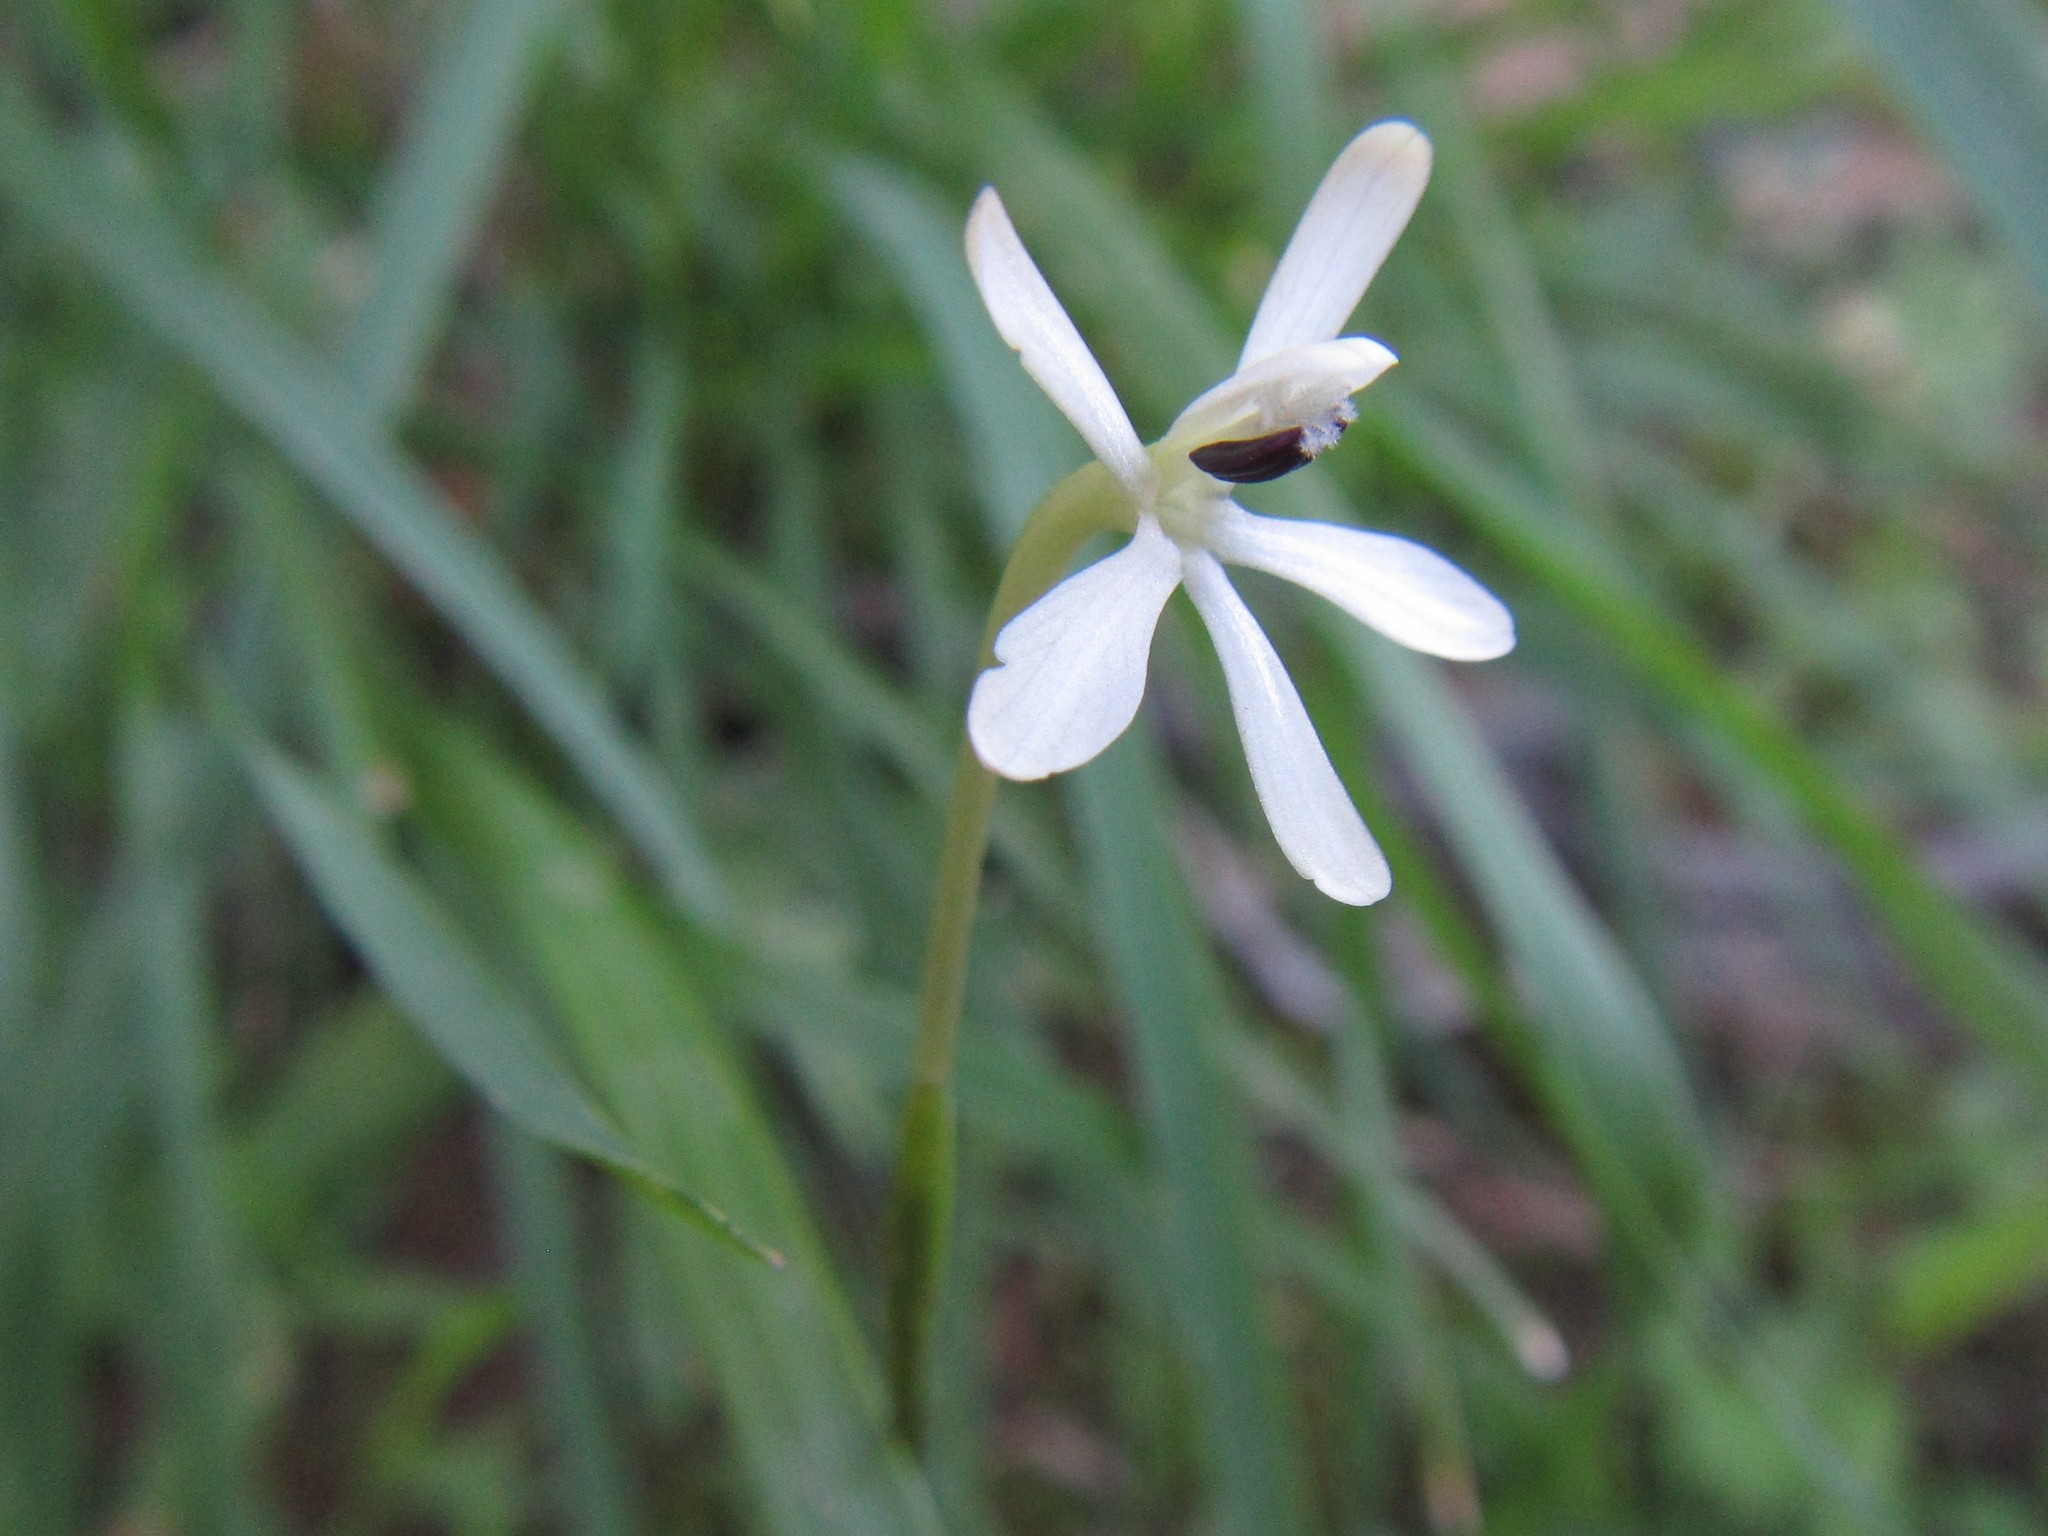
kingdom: Plantae
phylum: Tracheophyta
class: Liliopsida
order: Asparagales
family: Iridaceae
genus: Xenoscapa
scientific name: Xenoscapa fistulosa
